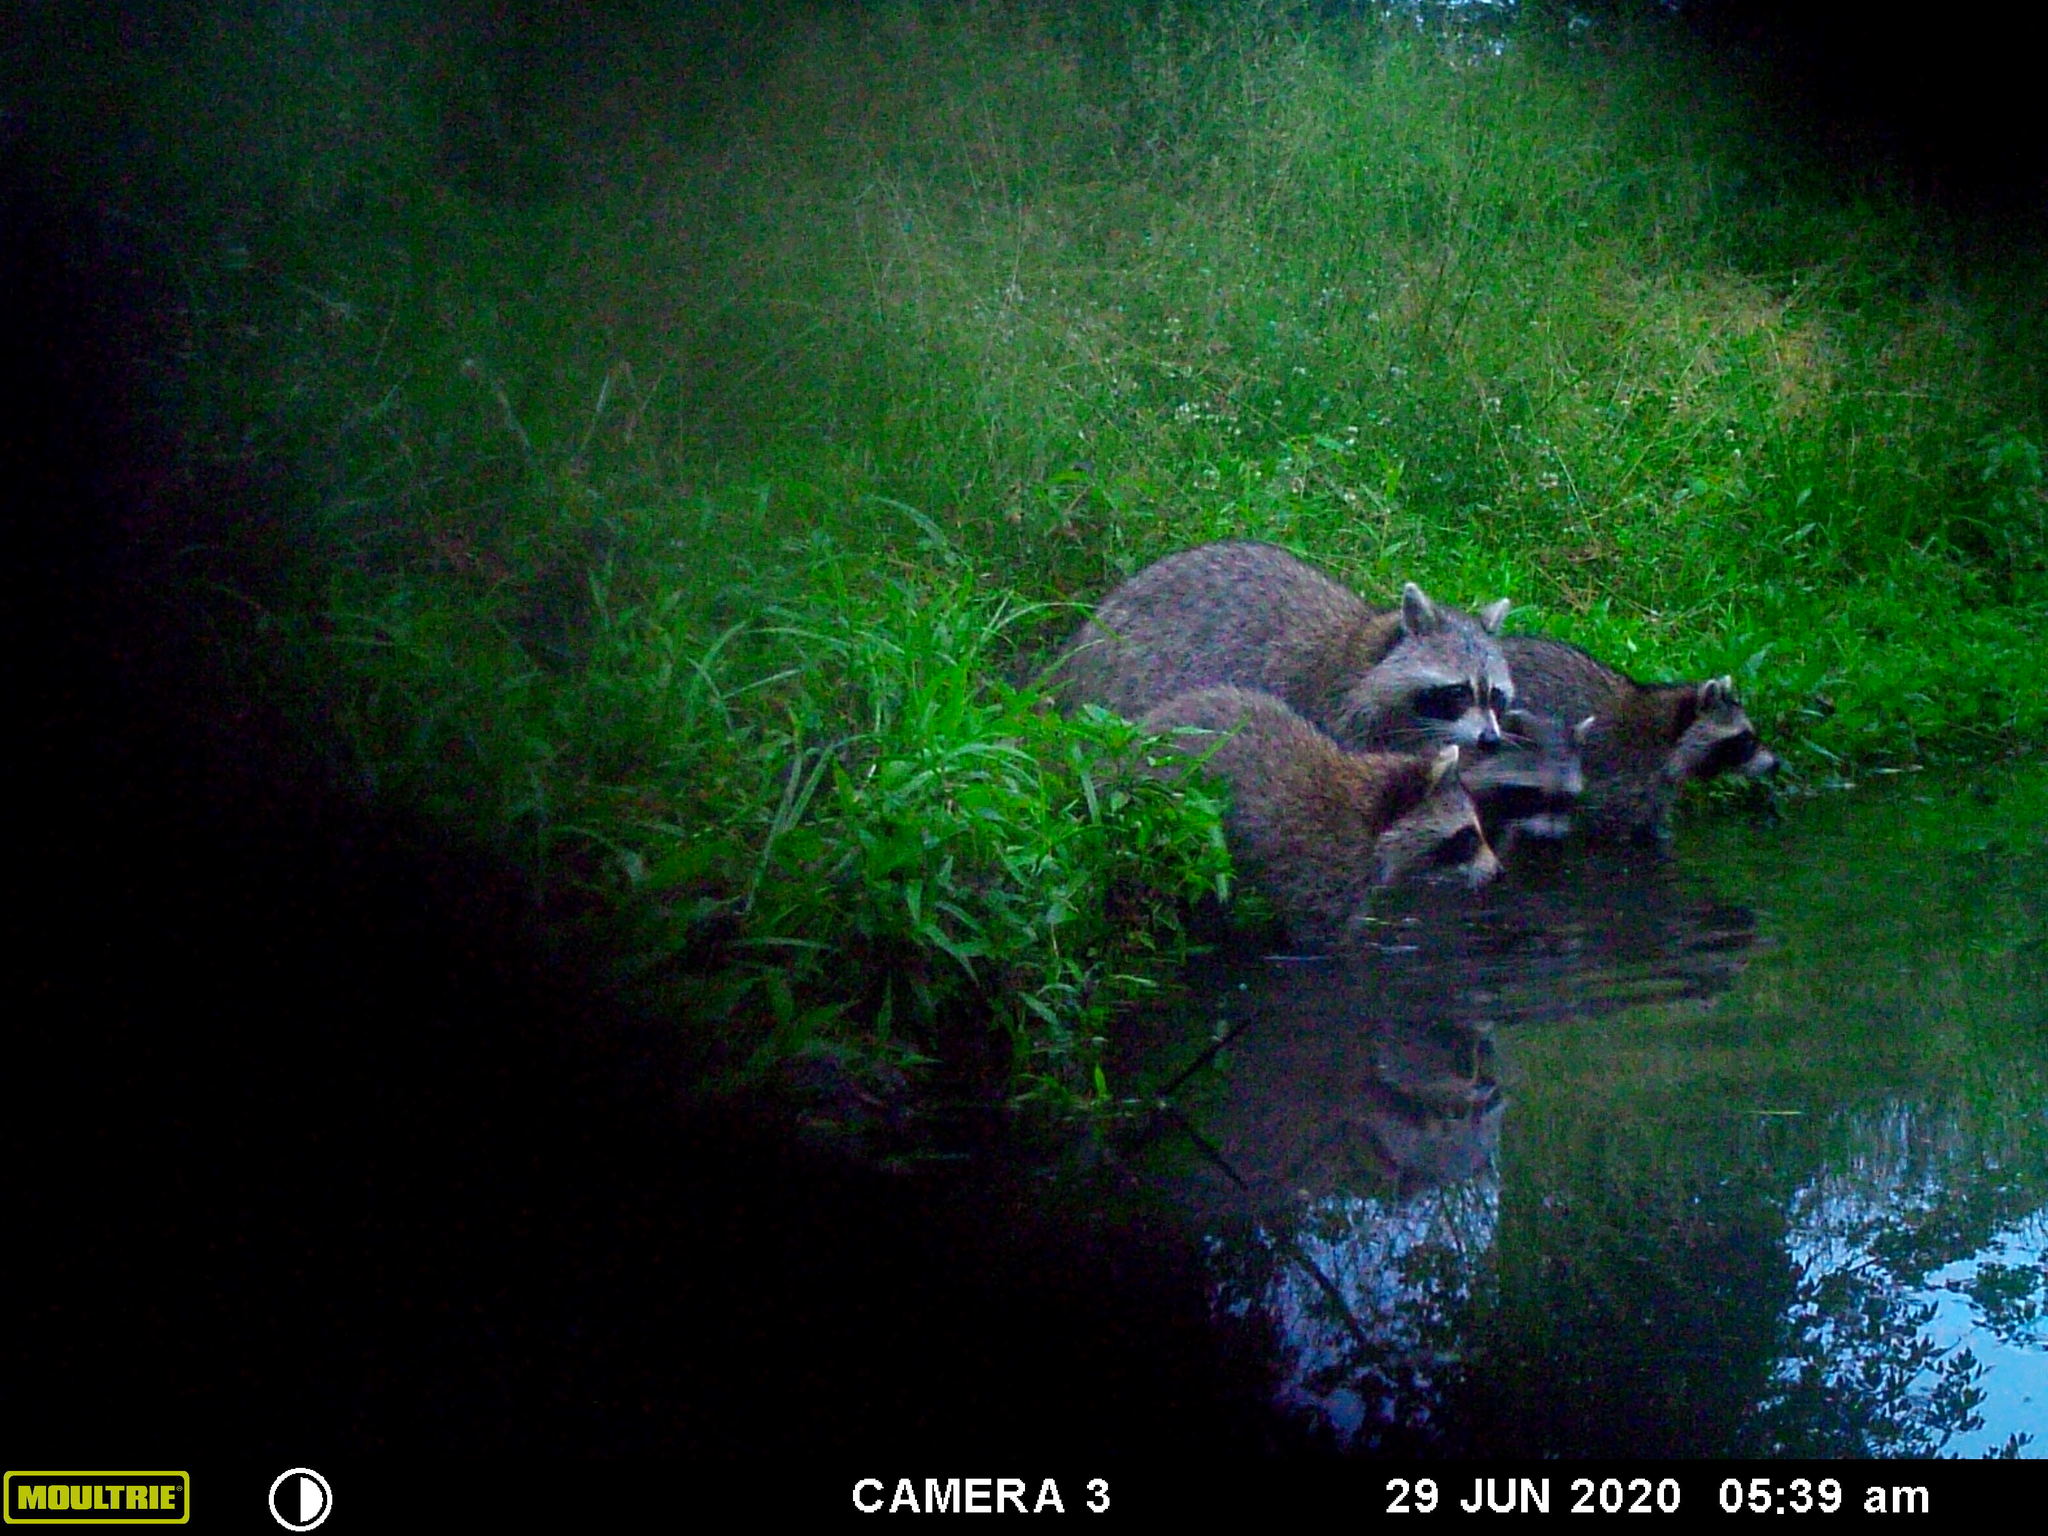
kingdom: Animalia
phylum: Chordata
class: Mammalia
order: Carnivora
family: Procyonidae
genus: Procyon
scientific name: Procyon lotor
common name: Raccoon
